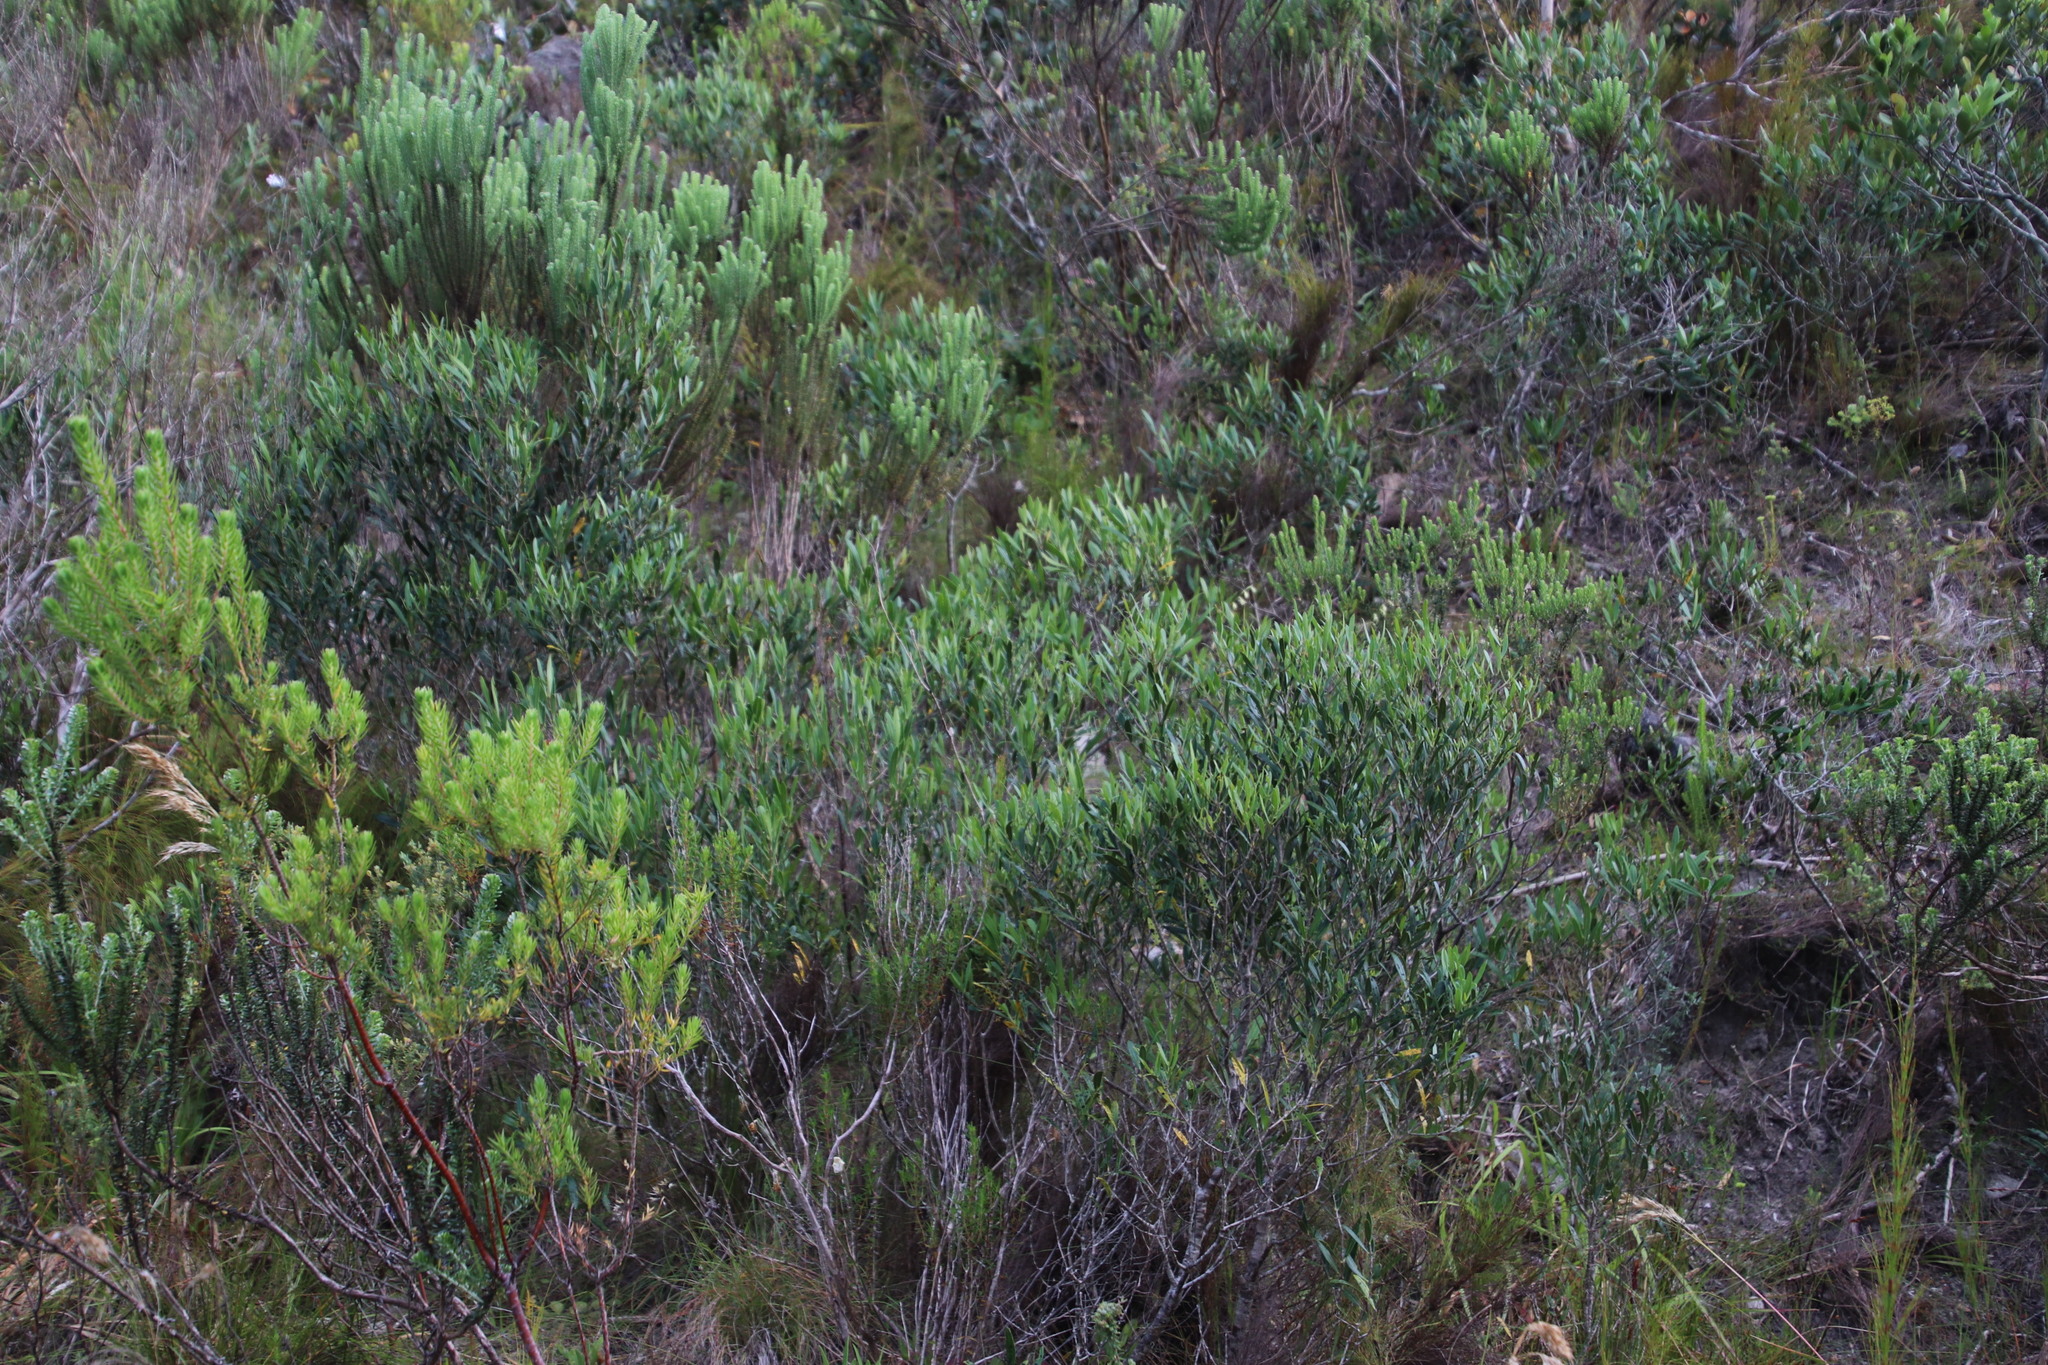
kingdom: Plantae
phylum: Tracheophyta
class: Magnoliopsida
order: Lamiales
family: Oleaceae
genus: Olea
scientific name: Olea exasperata
